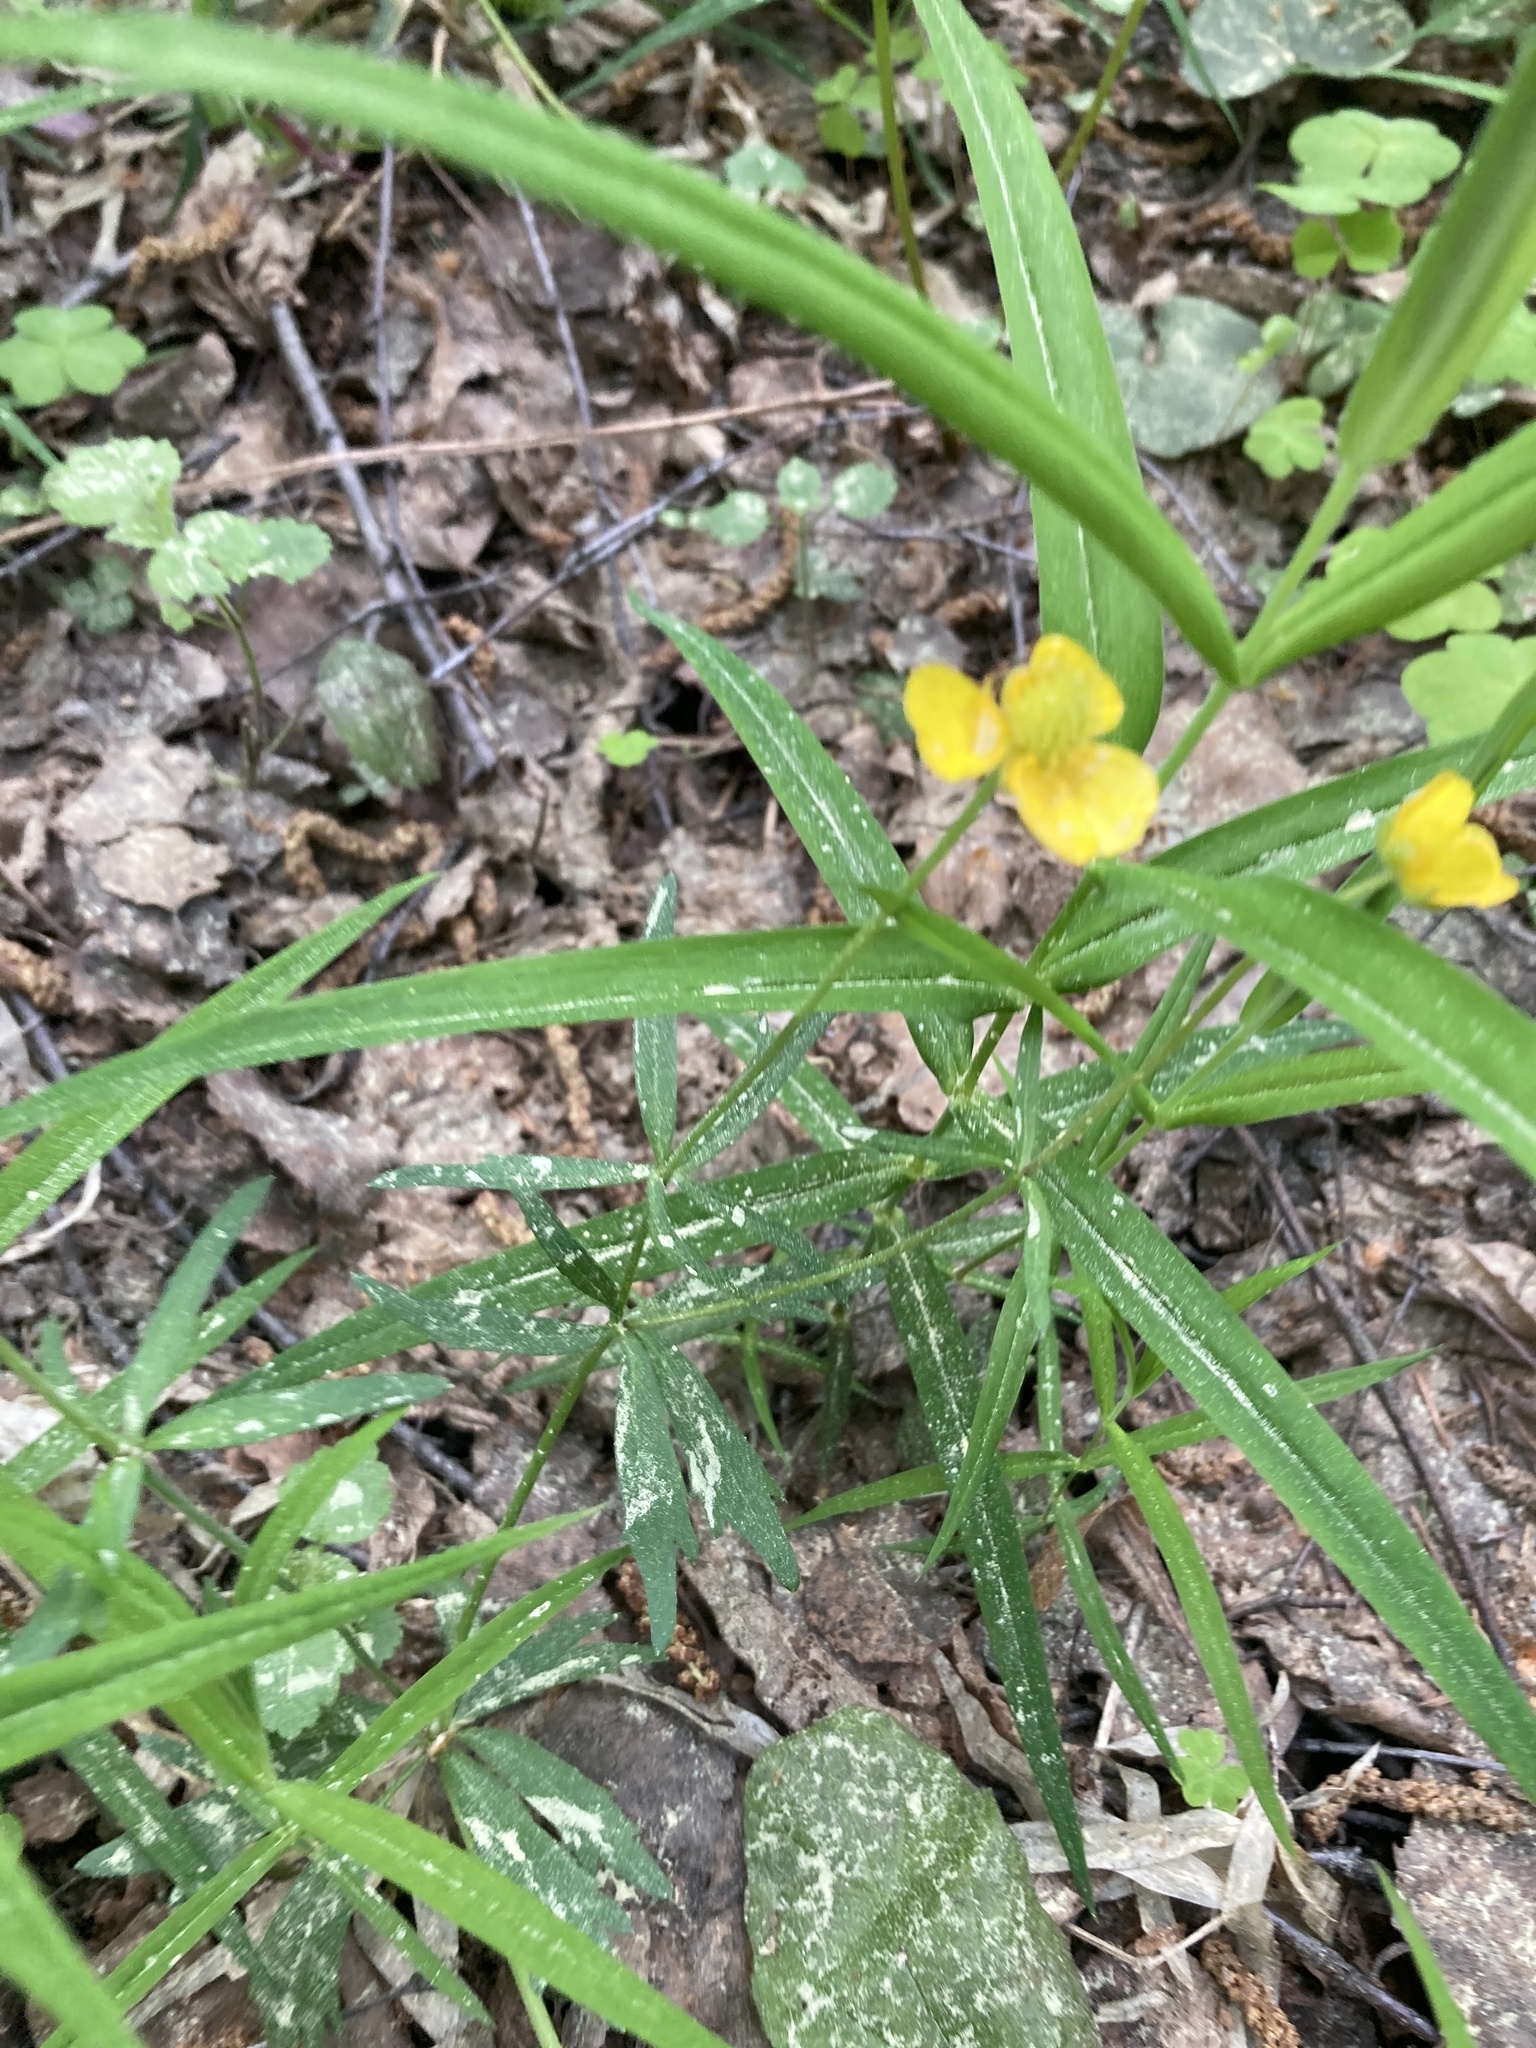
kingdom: Plantae
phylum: Tracheophyta
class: Magnoliopsida
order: Ranunculales
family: Ranunculaceae
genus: Ranunculus
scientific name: Ranunculus cassubicus
